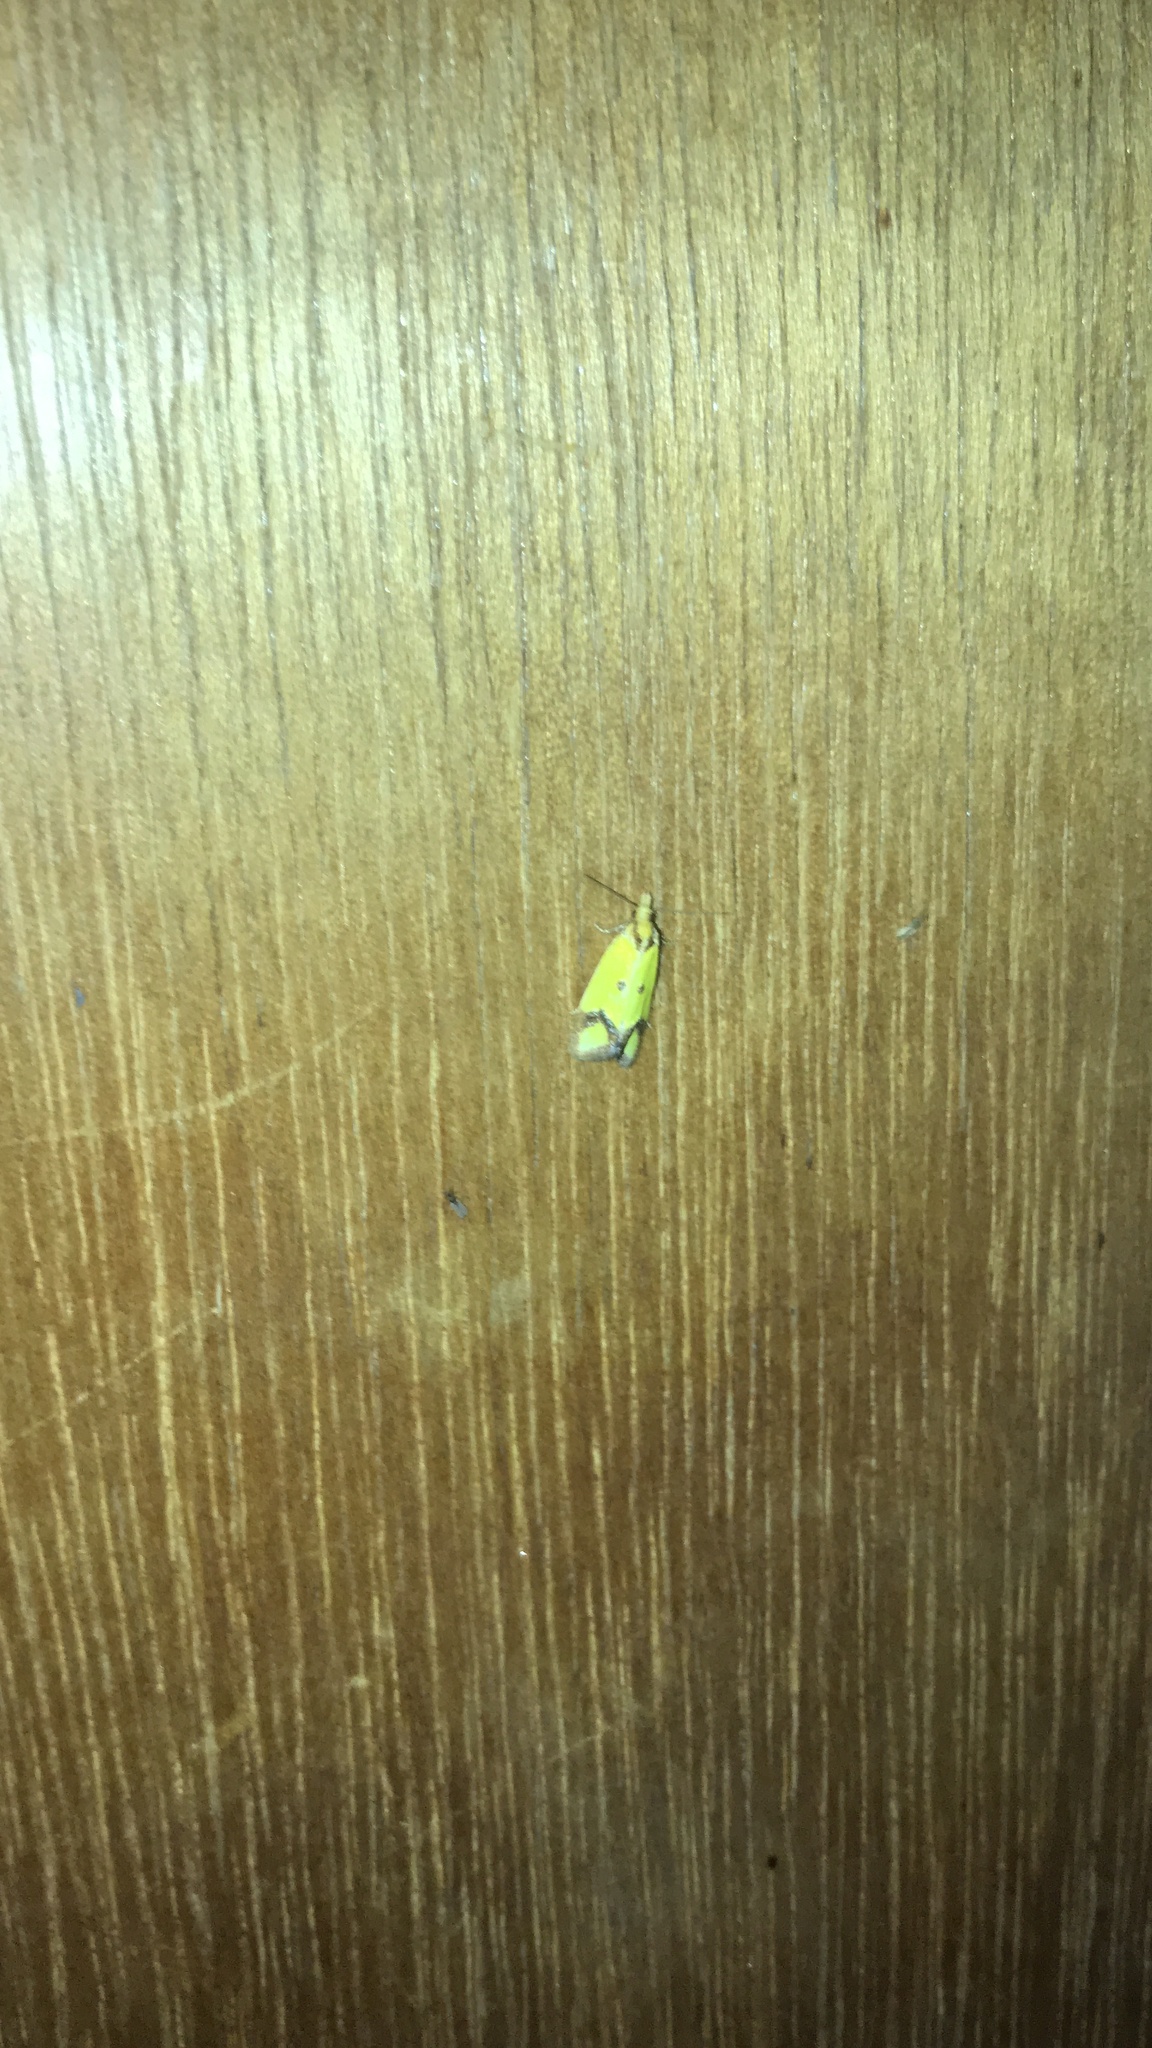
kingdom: Animalia
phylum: Arthropoda
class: Insecta
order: Lepidoptera
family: Tortricidae
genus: Agapeta
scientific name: Agapeta zoegana
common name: Sulfur knapweed root moth
